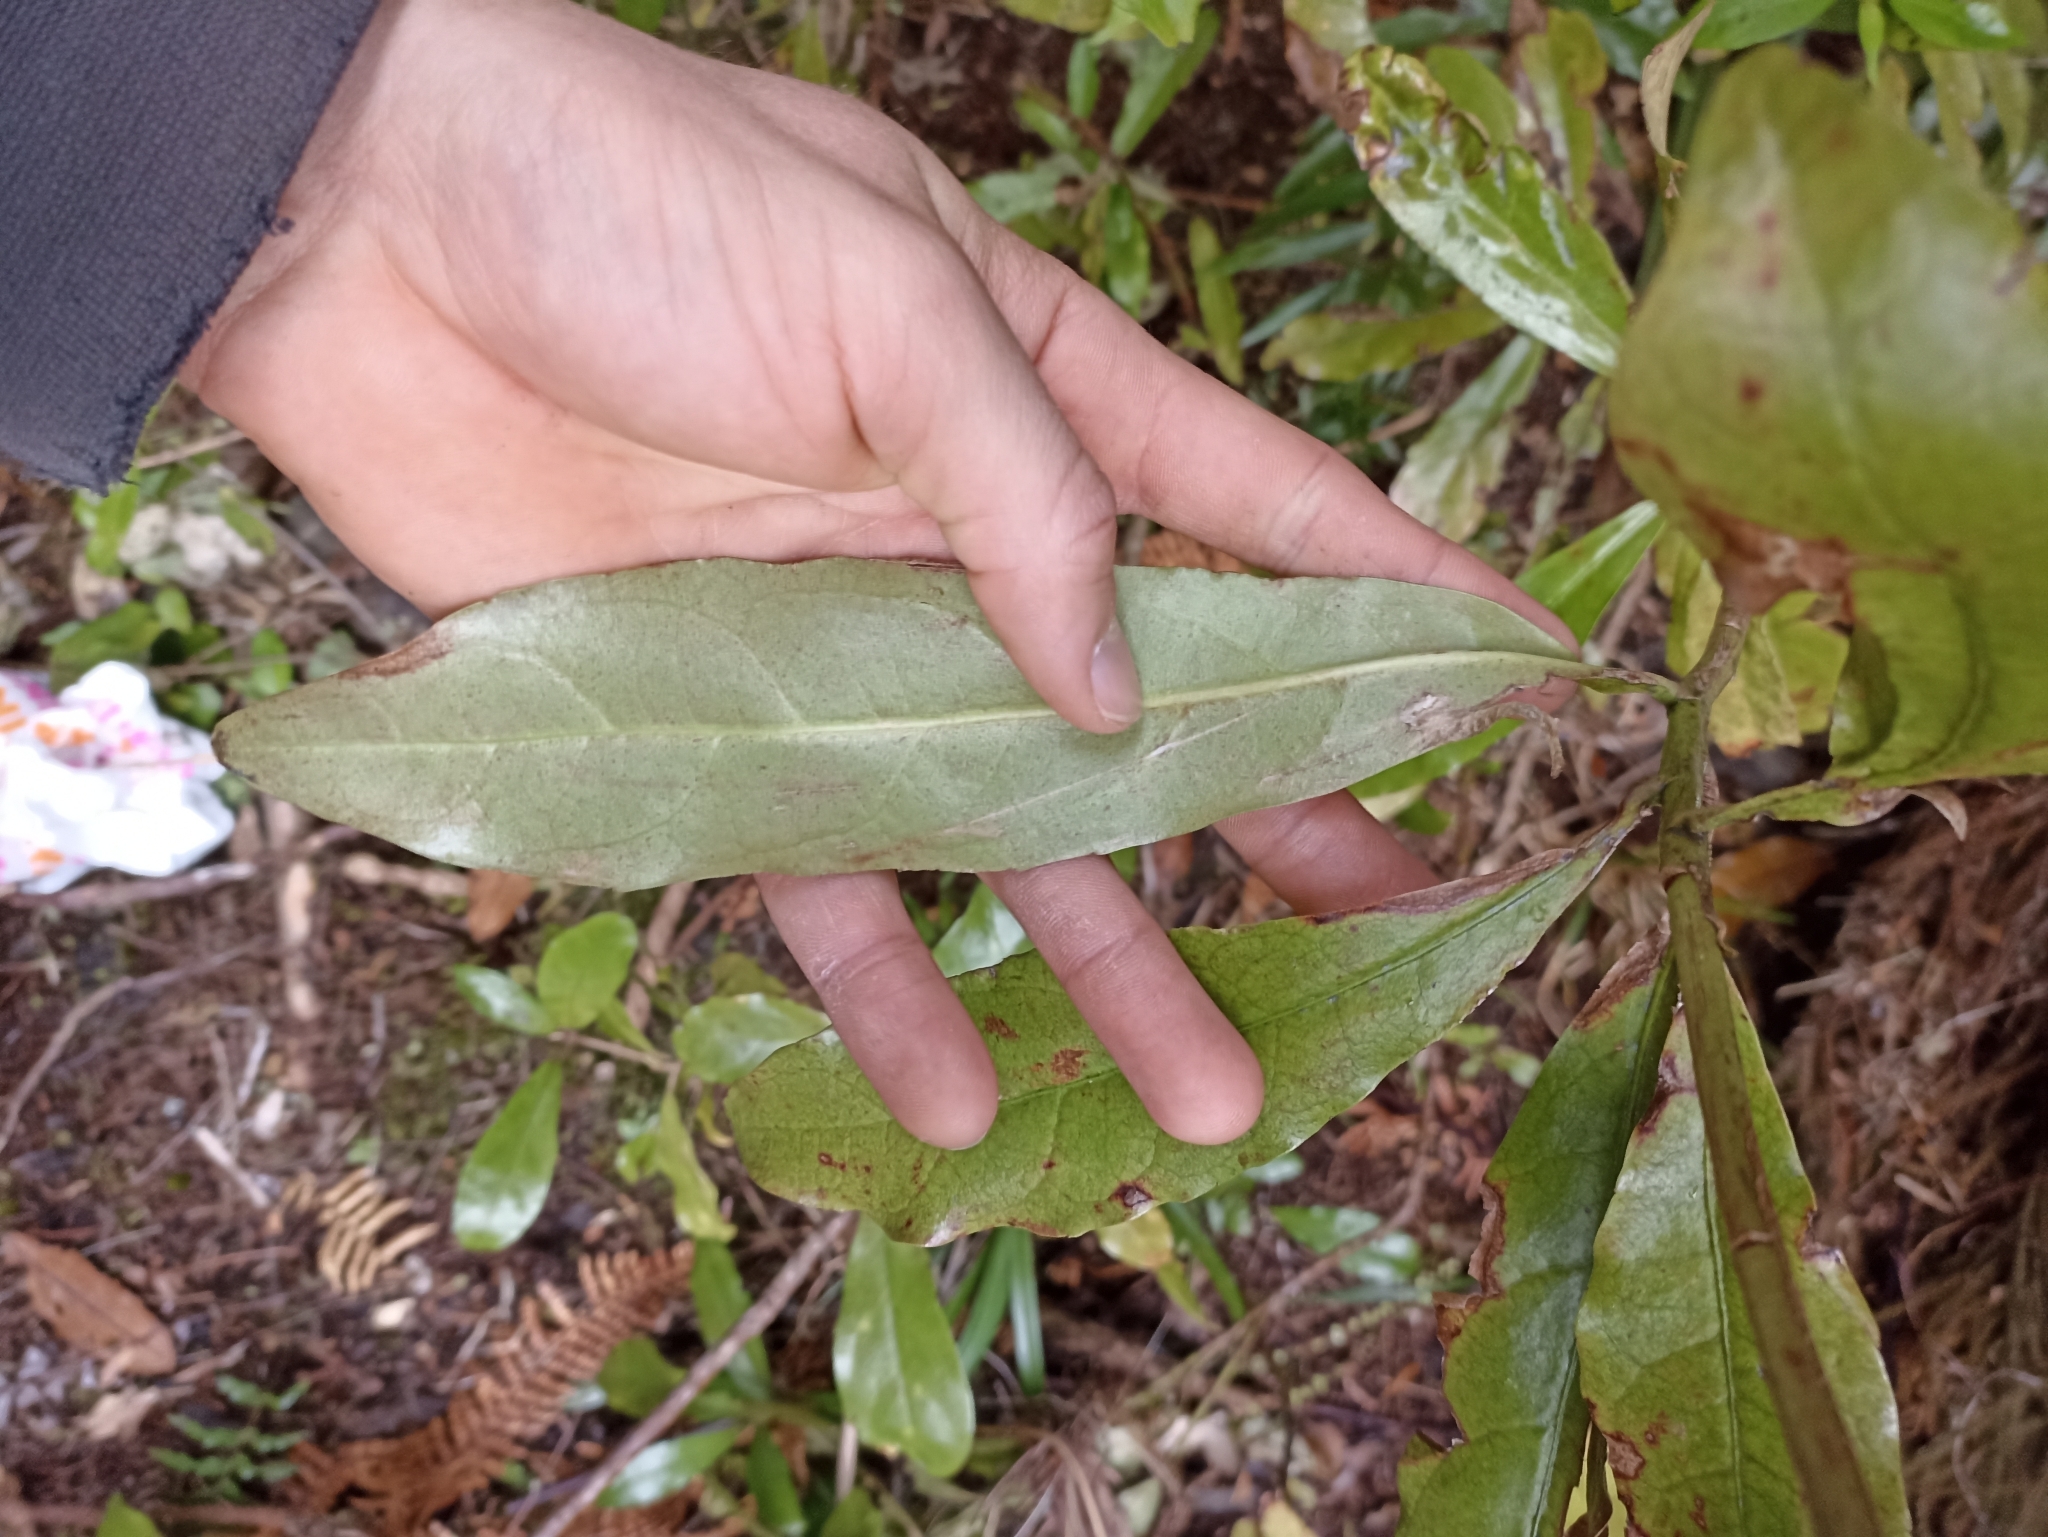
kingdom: Plantae
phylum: Tracheophyta
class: Magnoliopsida
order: Asterales
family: Alseuosmiaceae
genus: Alseuosmia
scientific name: Alseuosmia macrophylla
